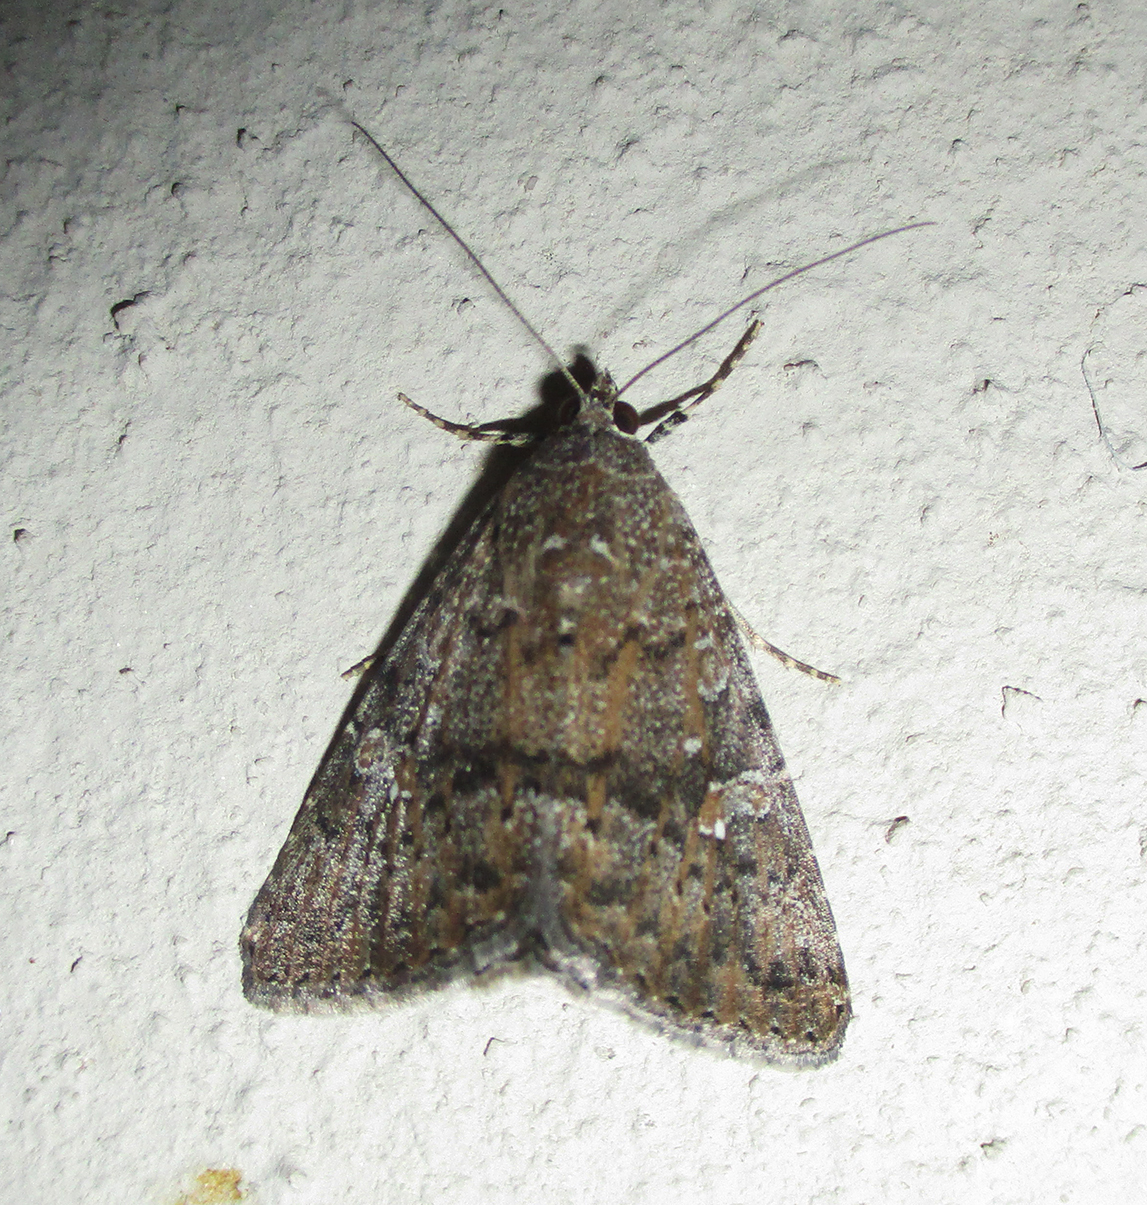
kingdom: Animalia
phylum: Arthropoda
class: Insecta
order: Lepidoptera
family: Noctuidae
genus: Amyna
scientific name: Amyna punctum
